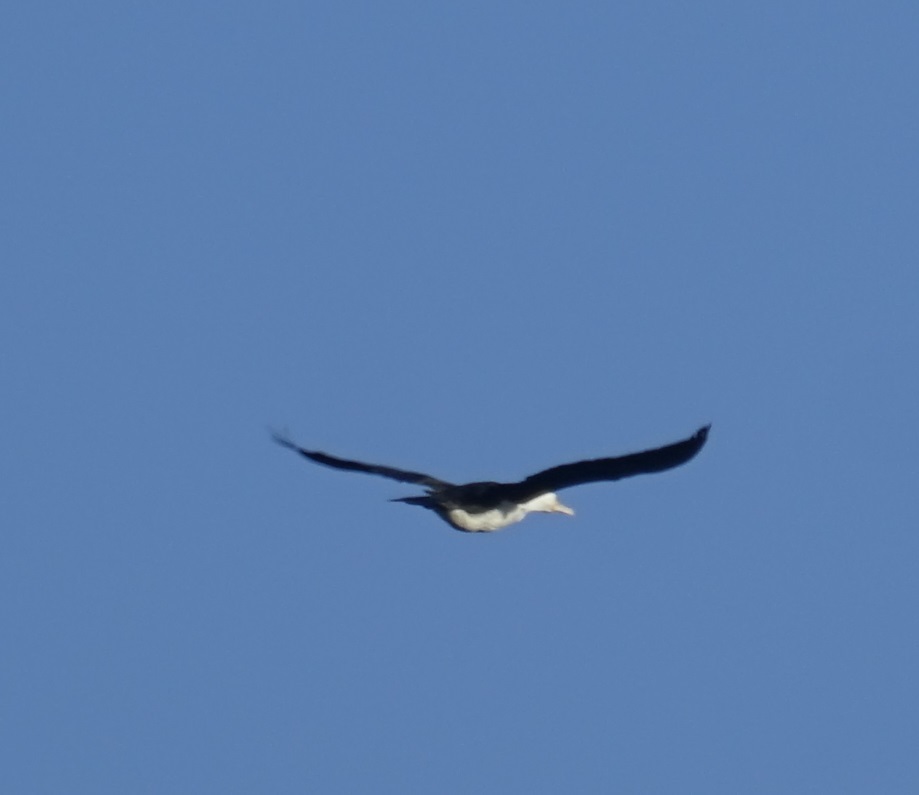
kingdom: Animalia
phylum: Chordata
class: Aves
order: Suliformes
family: Phalacrocoracidae
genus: Phalacrocorax
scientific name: Phalacrocorax varius
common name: Pied cormorant
